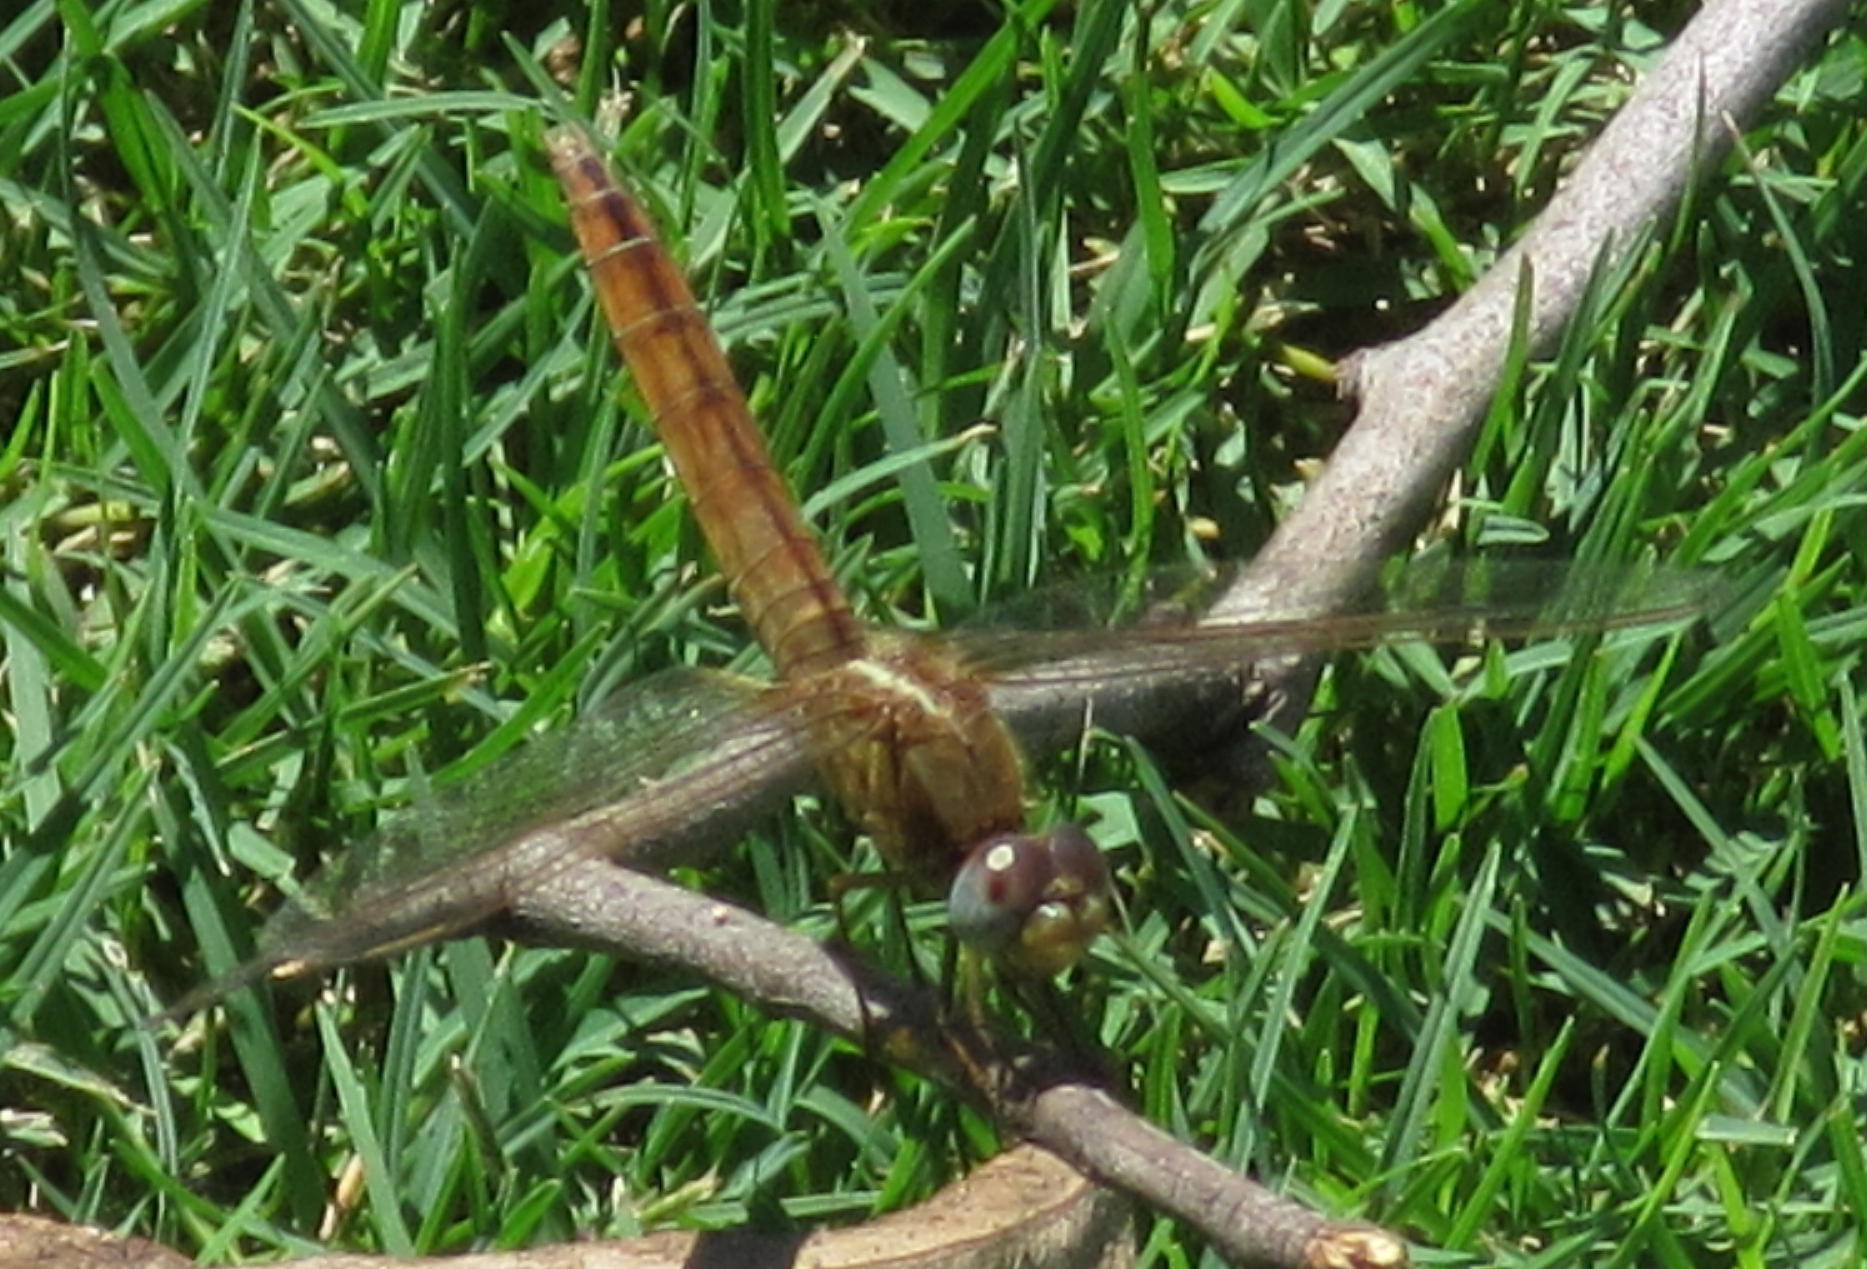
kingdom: Animalia
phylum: Arthropoda
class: Insecta
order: Odonata
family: Libellulidae
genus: Crocothemis
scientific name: Crocothemis erythraea
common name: Scarlet dragonfly
